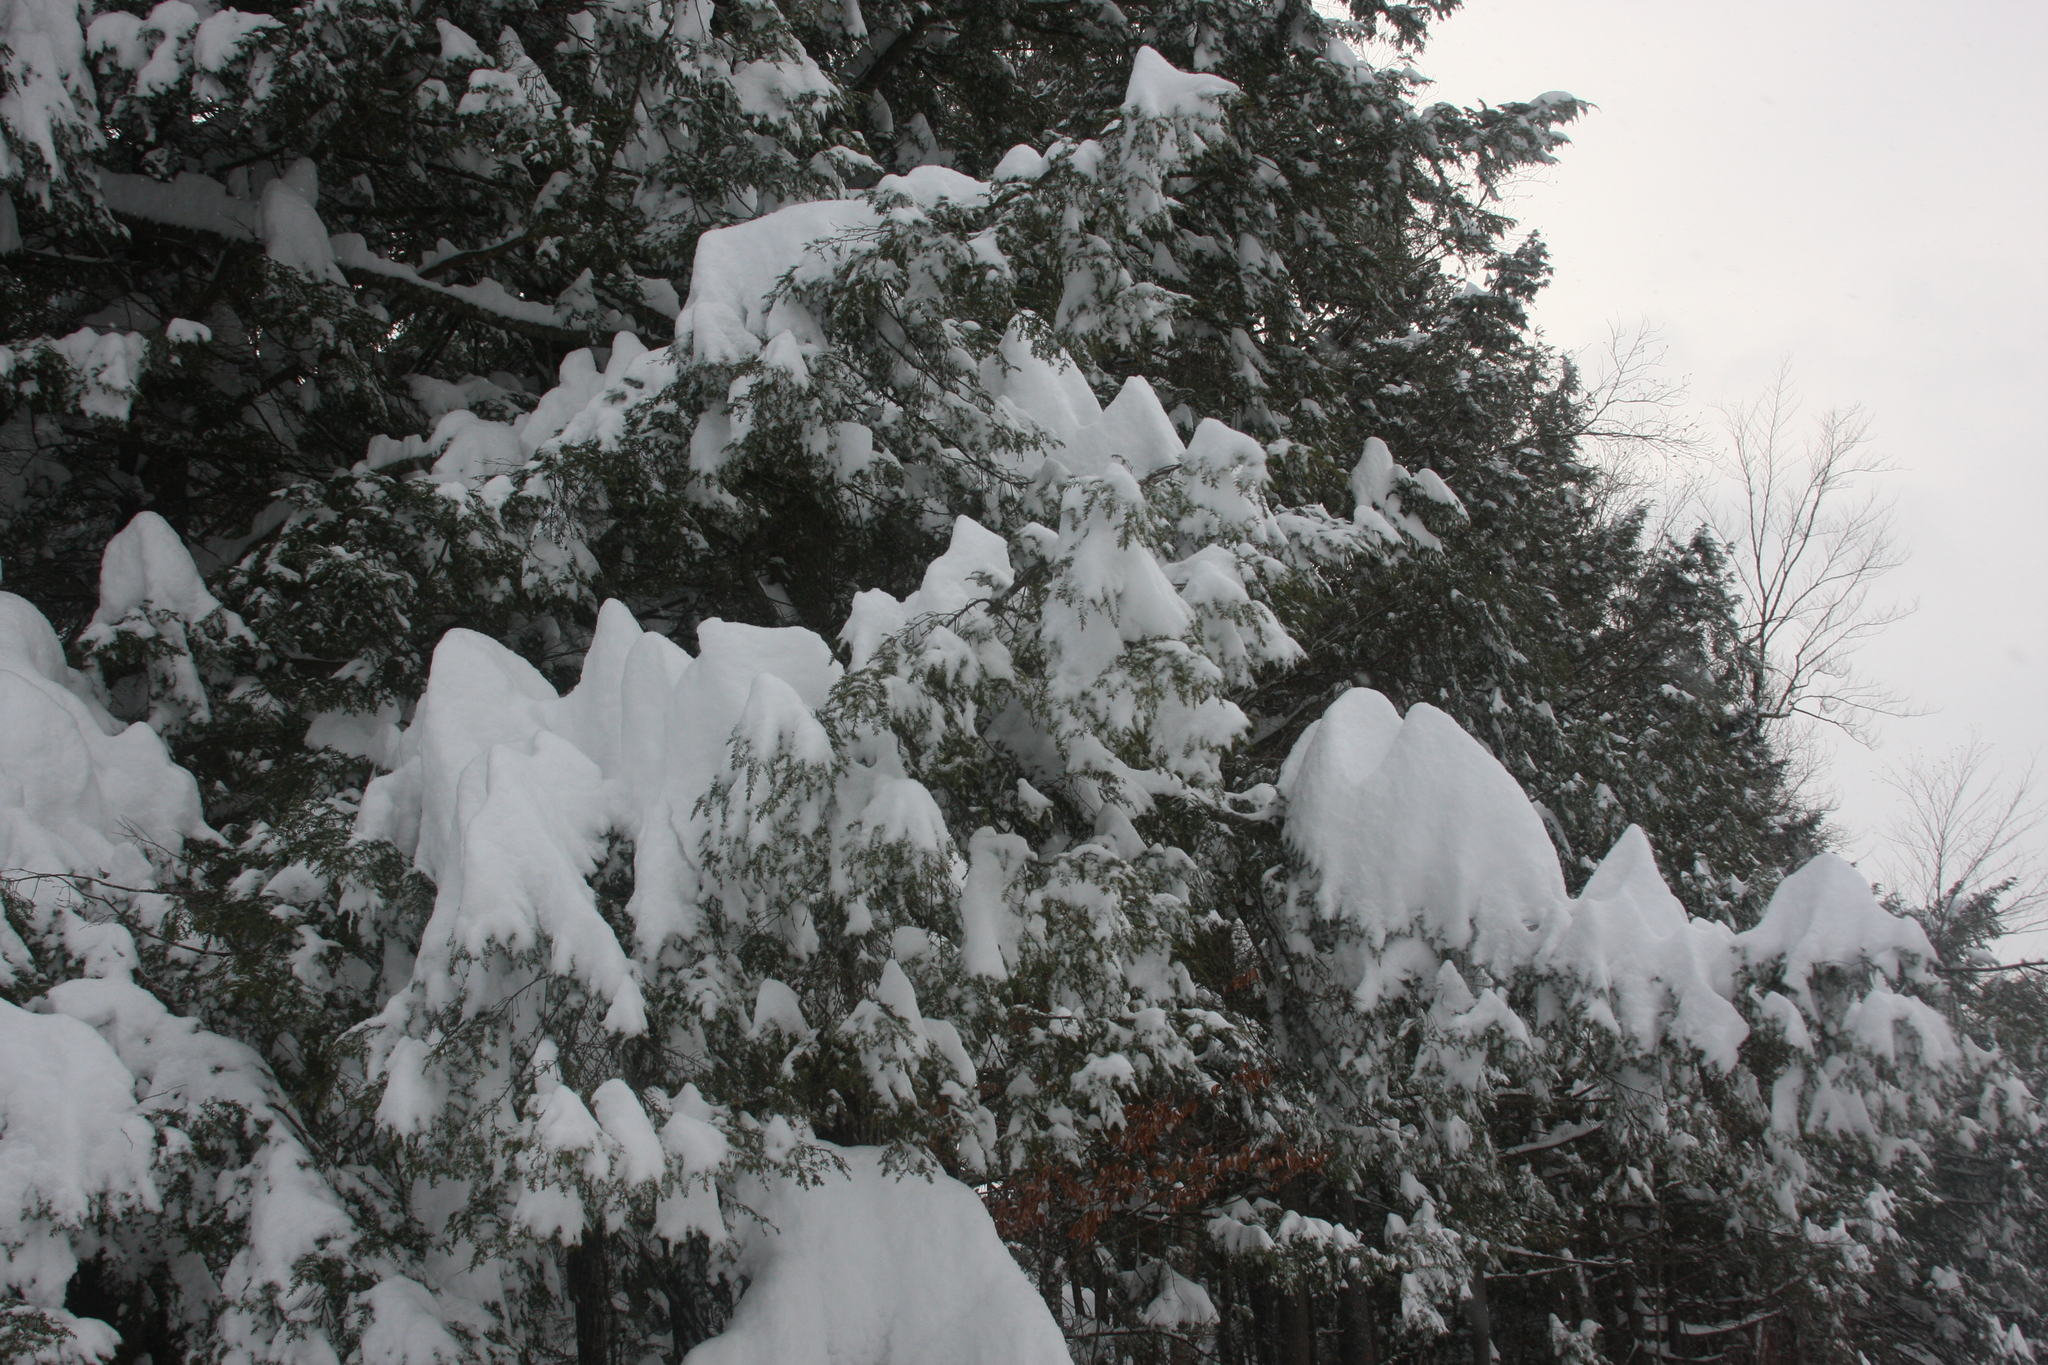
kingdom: Plantae
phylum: Tracheophyta
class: Pinopsida
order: Pinales
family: Pinaceae
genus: Tsuga
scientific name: Tsuga canadensis
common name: Eastern hemlock
